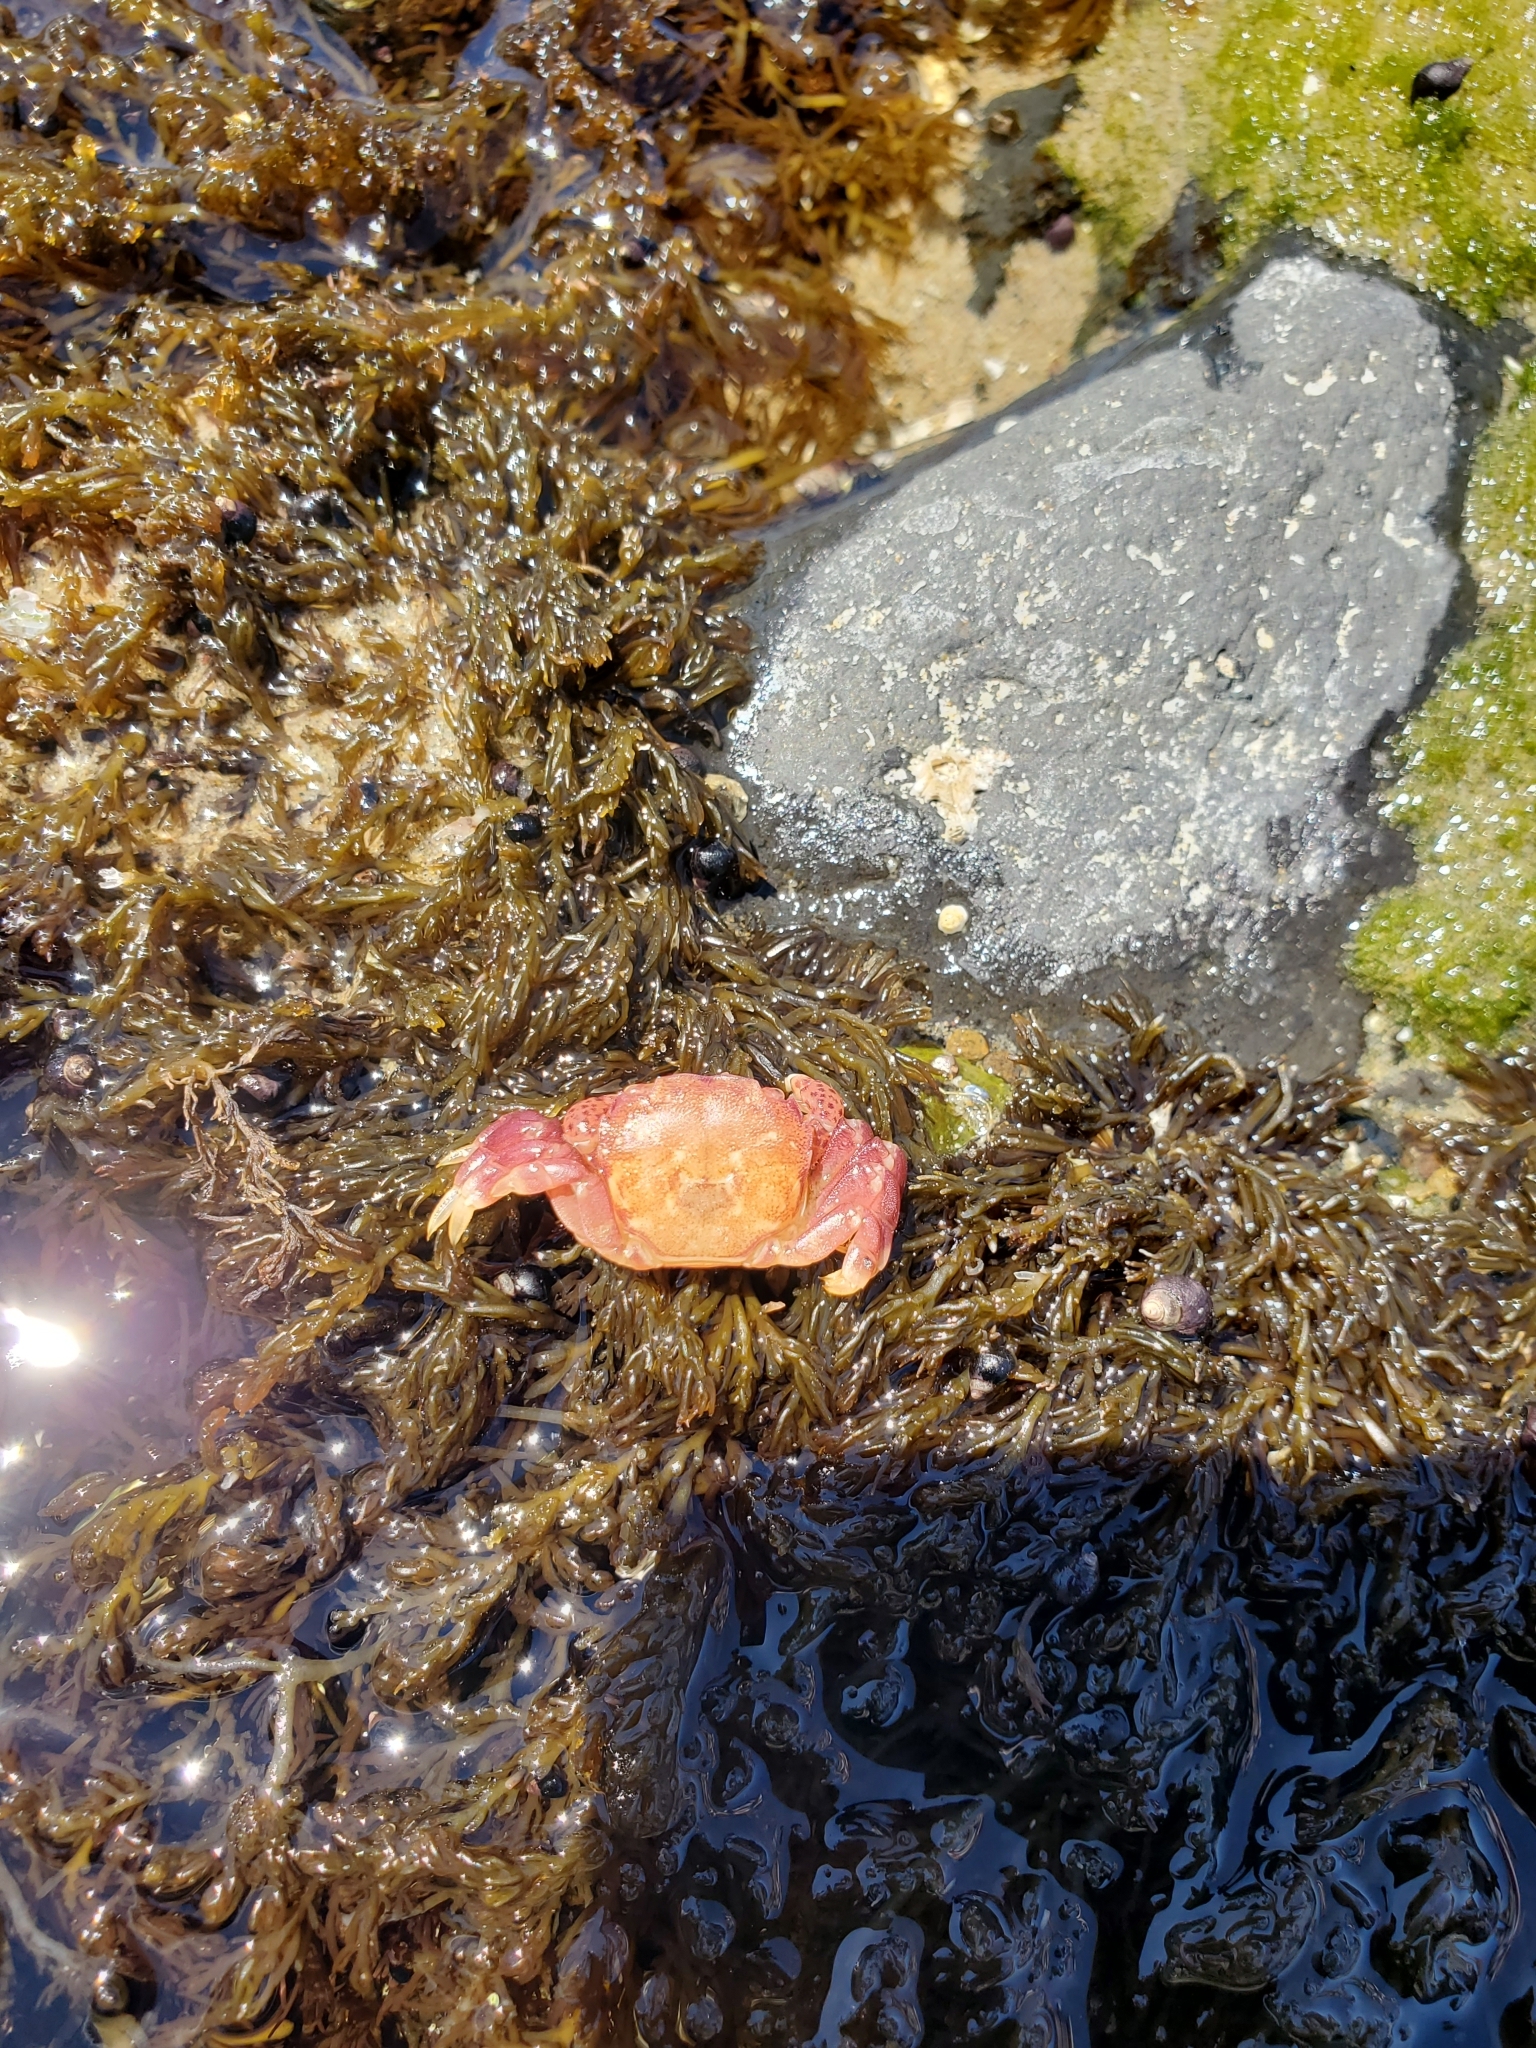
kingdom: Animalia
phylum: Arthropoda
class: Malacostraca
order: Decapoda
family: Varunidae
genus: Hemigrapsus
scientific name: Hemigrapsus nudus
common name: Purple shore crab
